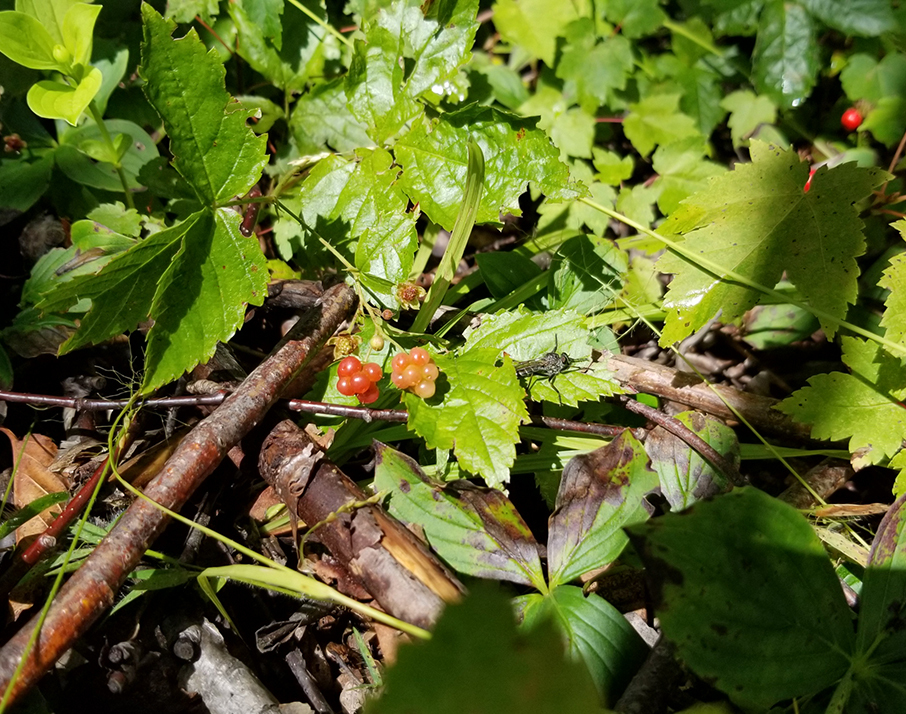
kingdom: Plantae
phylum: Tracheophyta
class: Magnoliopsida
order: Rosales
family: Rosaceae
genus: Rubus
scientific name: Rubus hispidus
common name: Running blackberry
